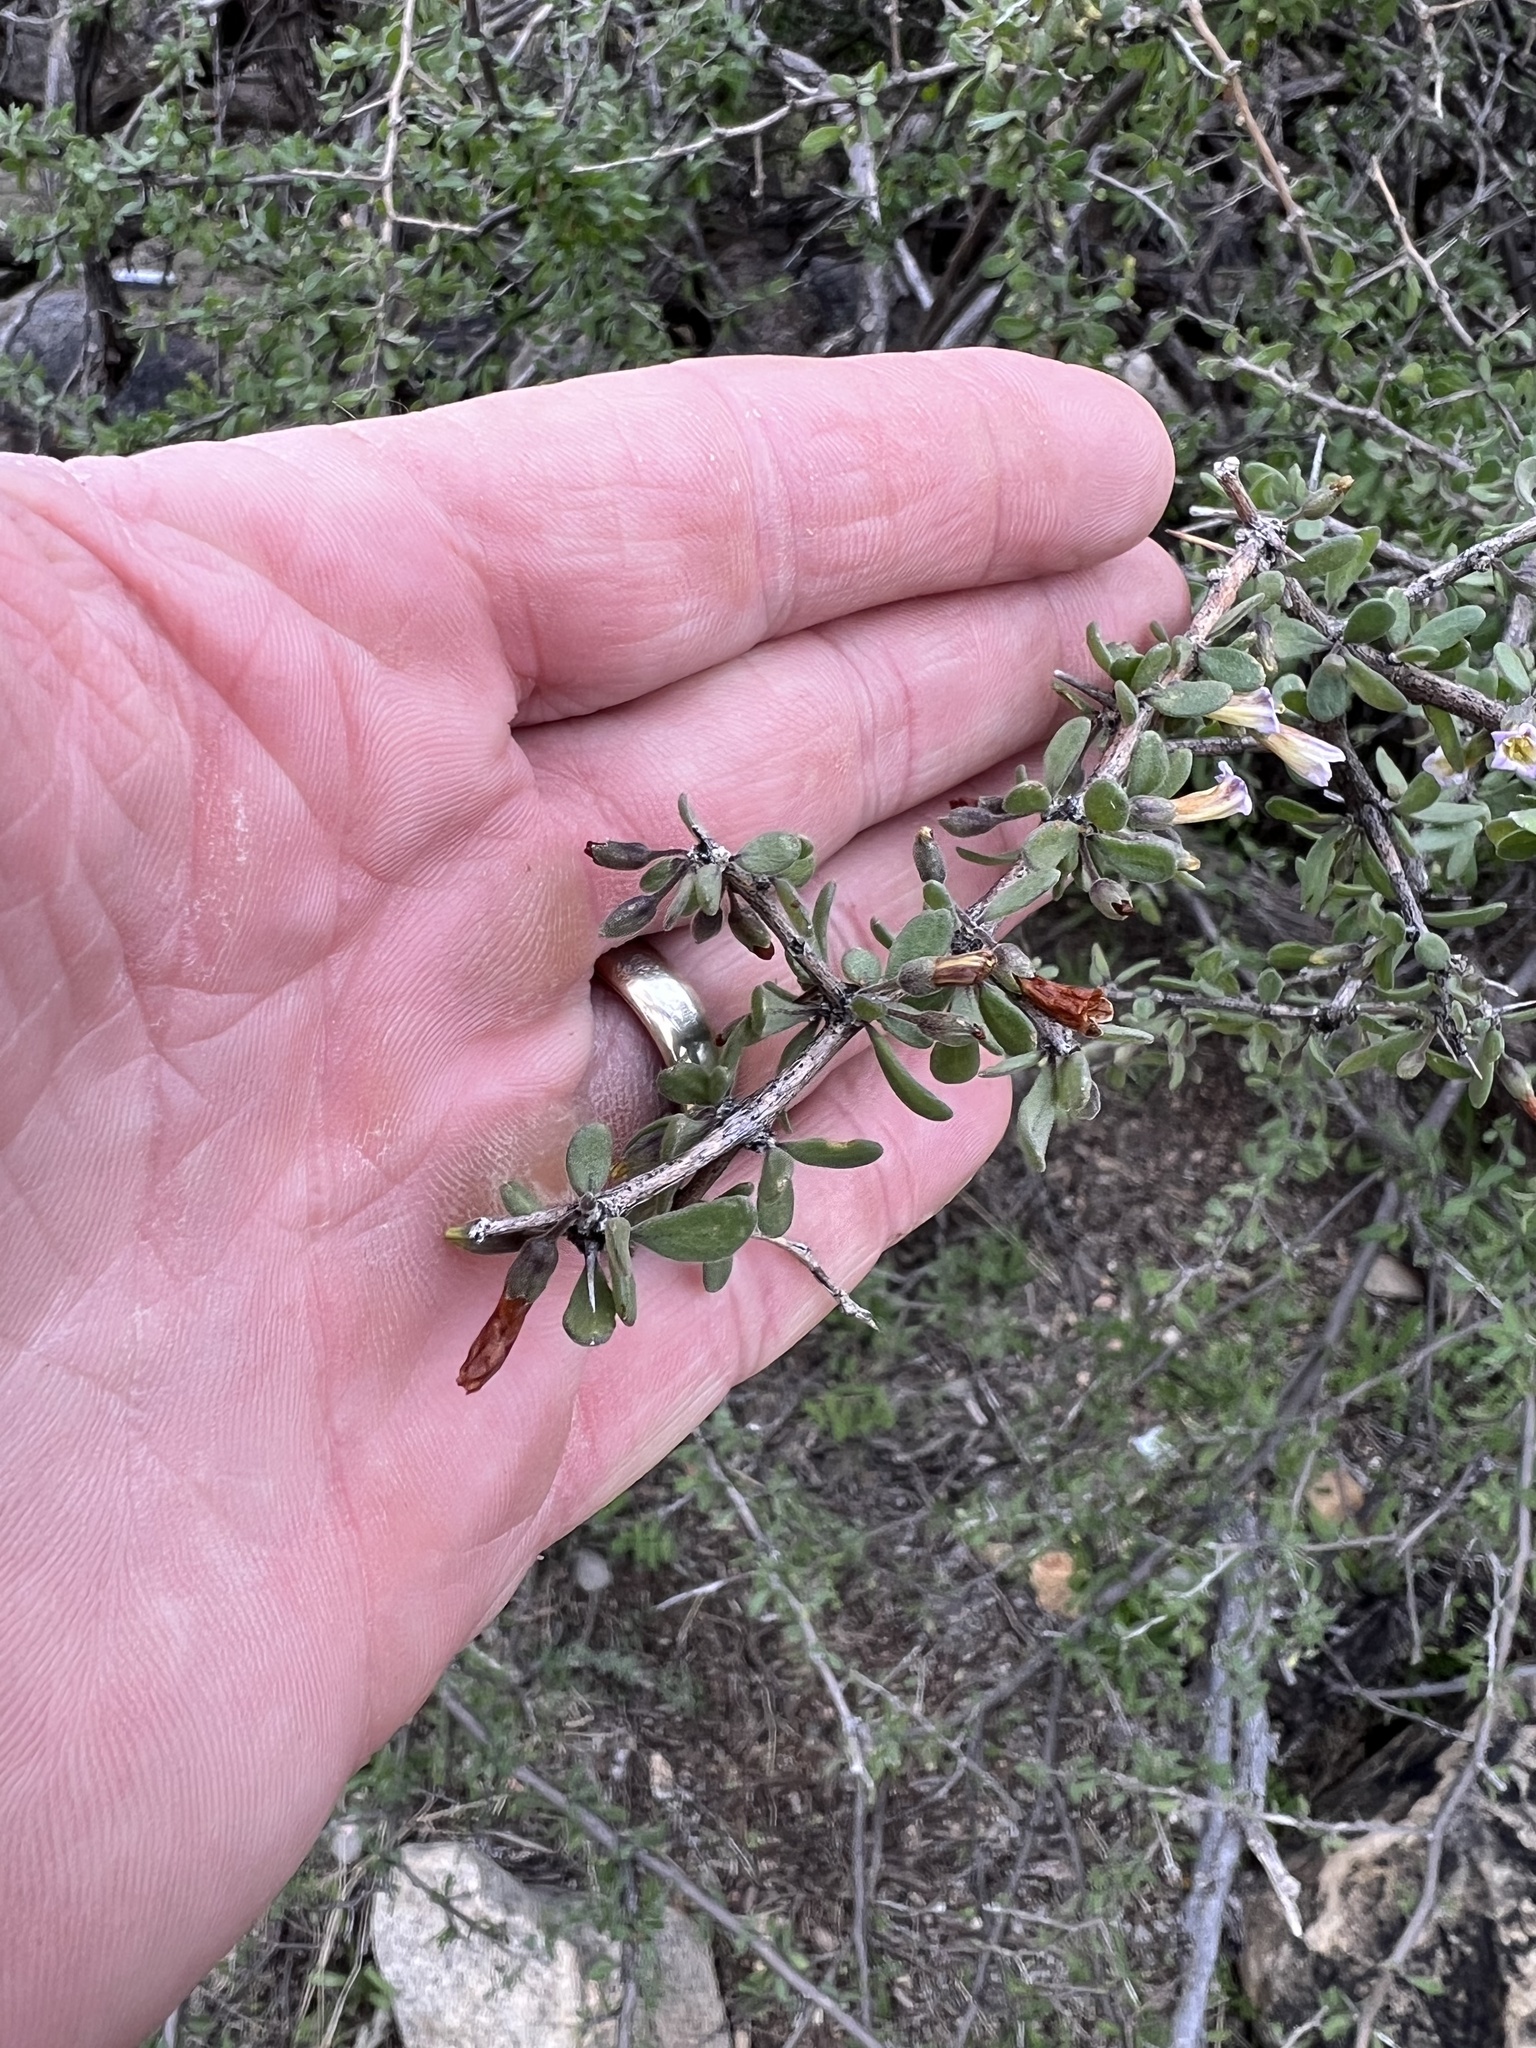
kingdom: Plantae
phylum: Tracheophyta
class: Magnoliopsida
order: Solanales
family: Solanaceae
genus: Lycium
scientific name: Lycium berlandieri
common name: Berlandier wolfberry
